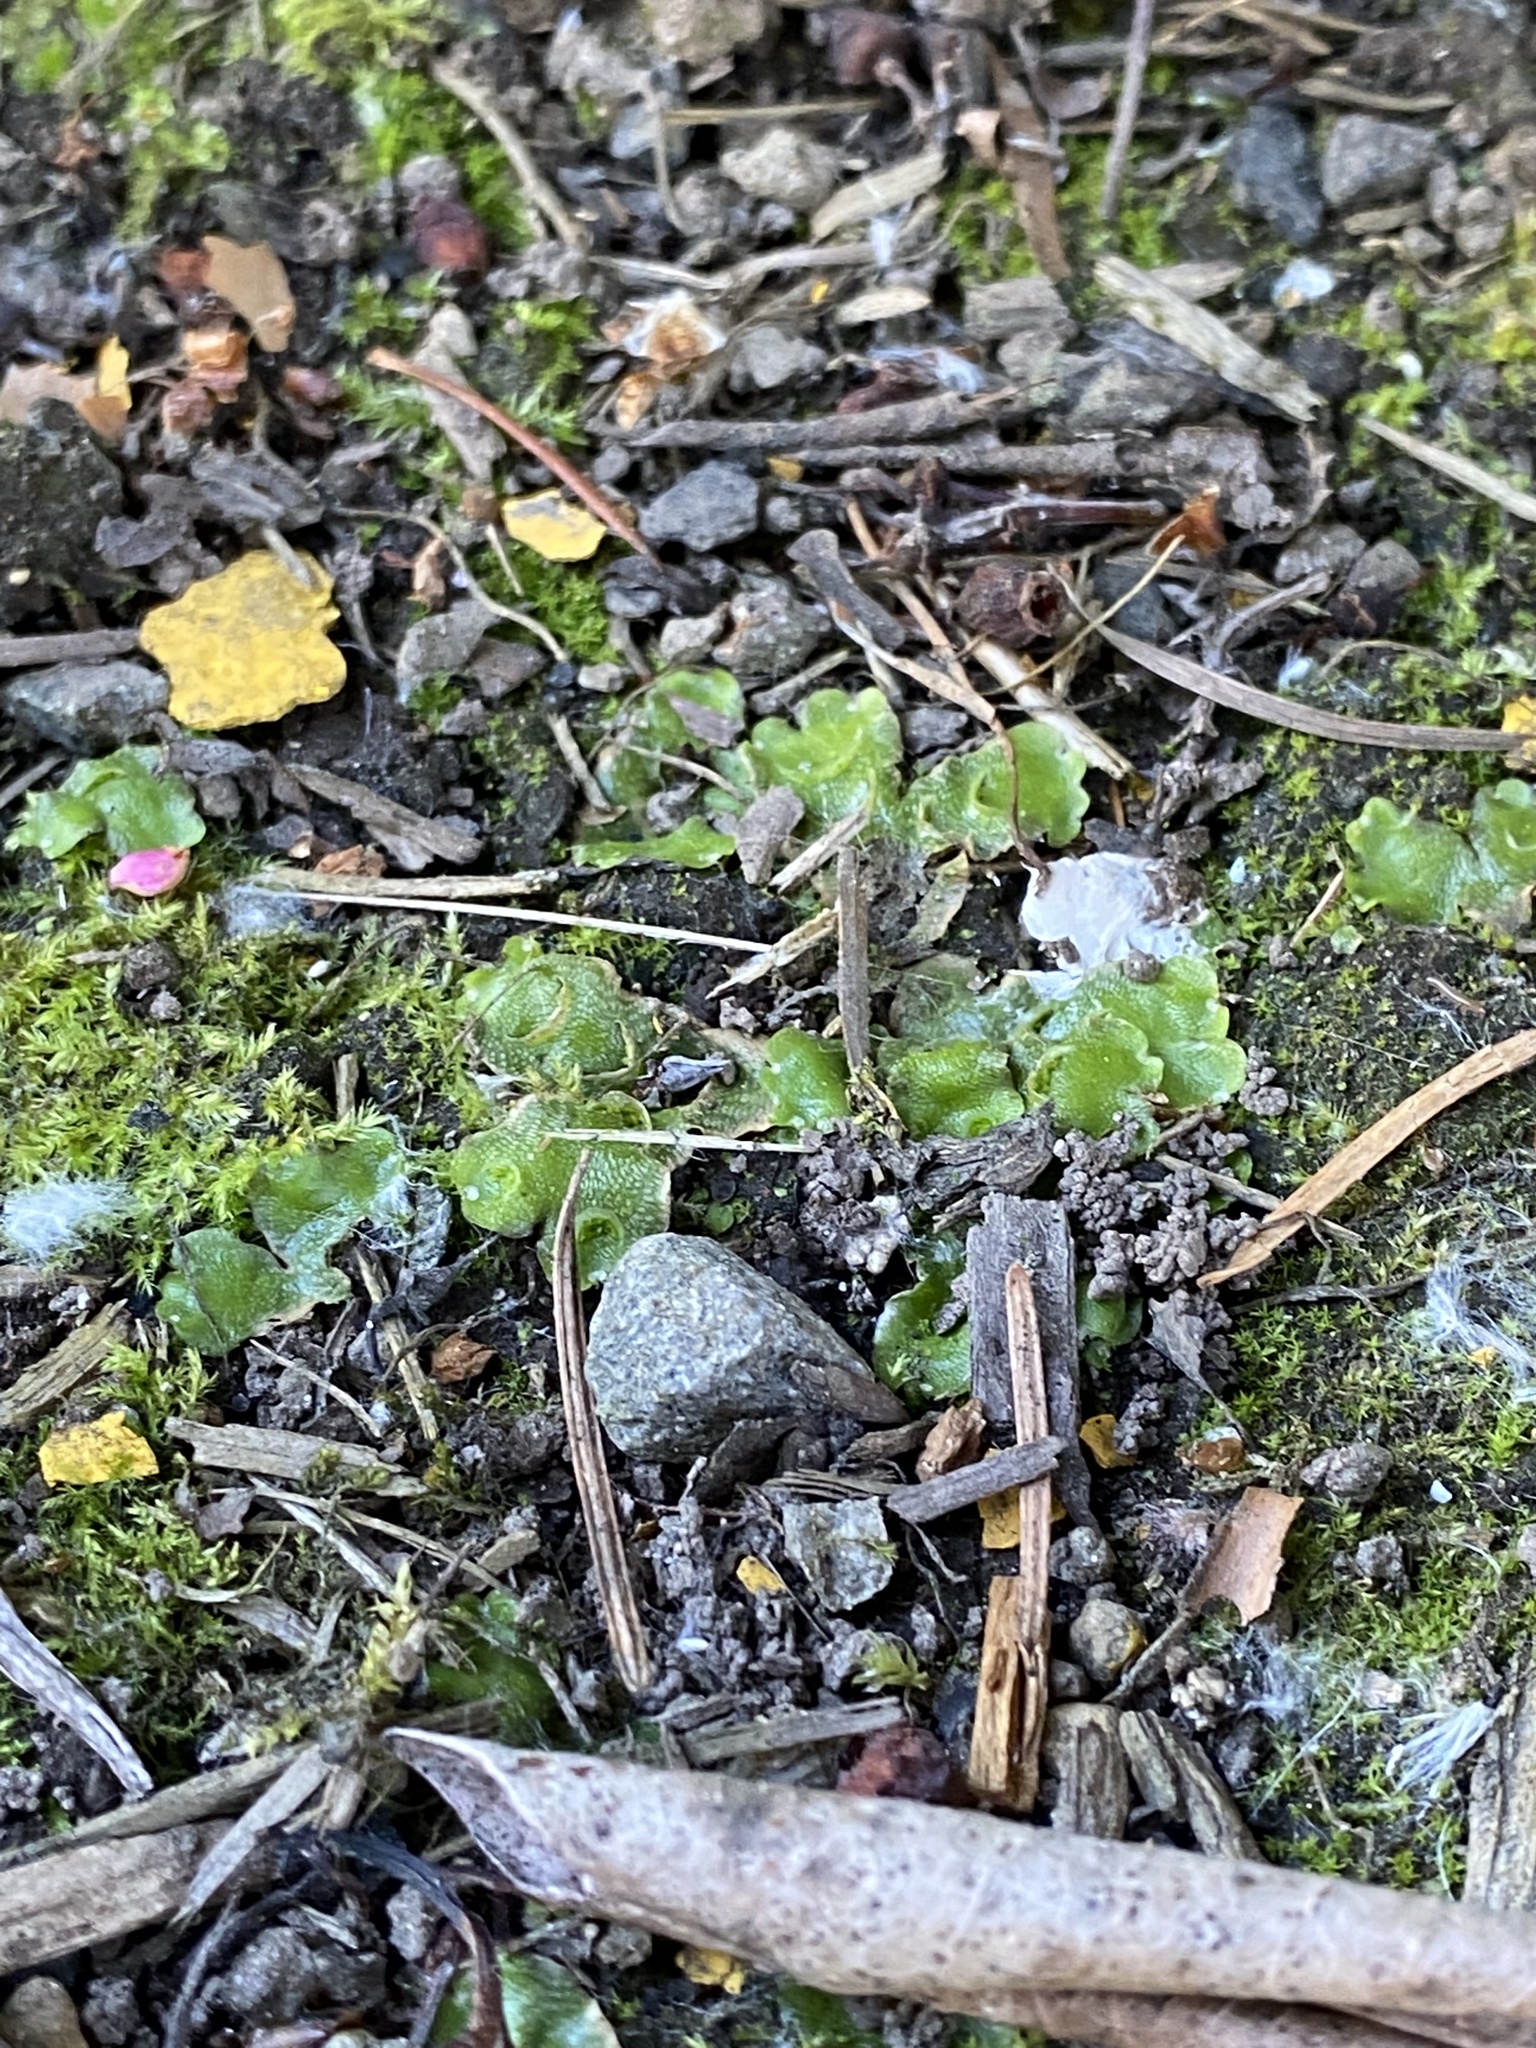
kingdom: Plantae
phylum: Marchantiophyta
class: Marchantiopsida
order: Lunulariales
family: Lunulariaceae
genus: Lunularia
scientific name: Lunularia cruciata
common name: Crescent-cup liverwort
